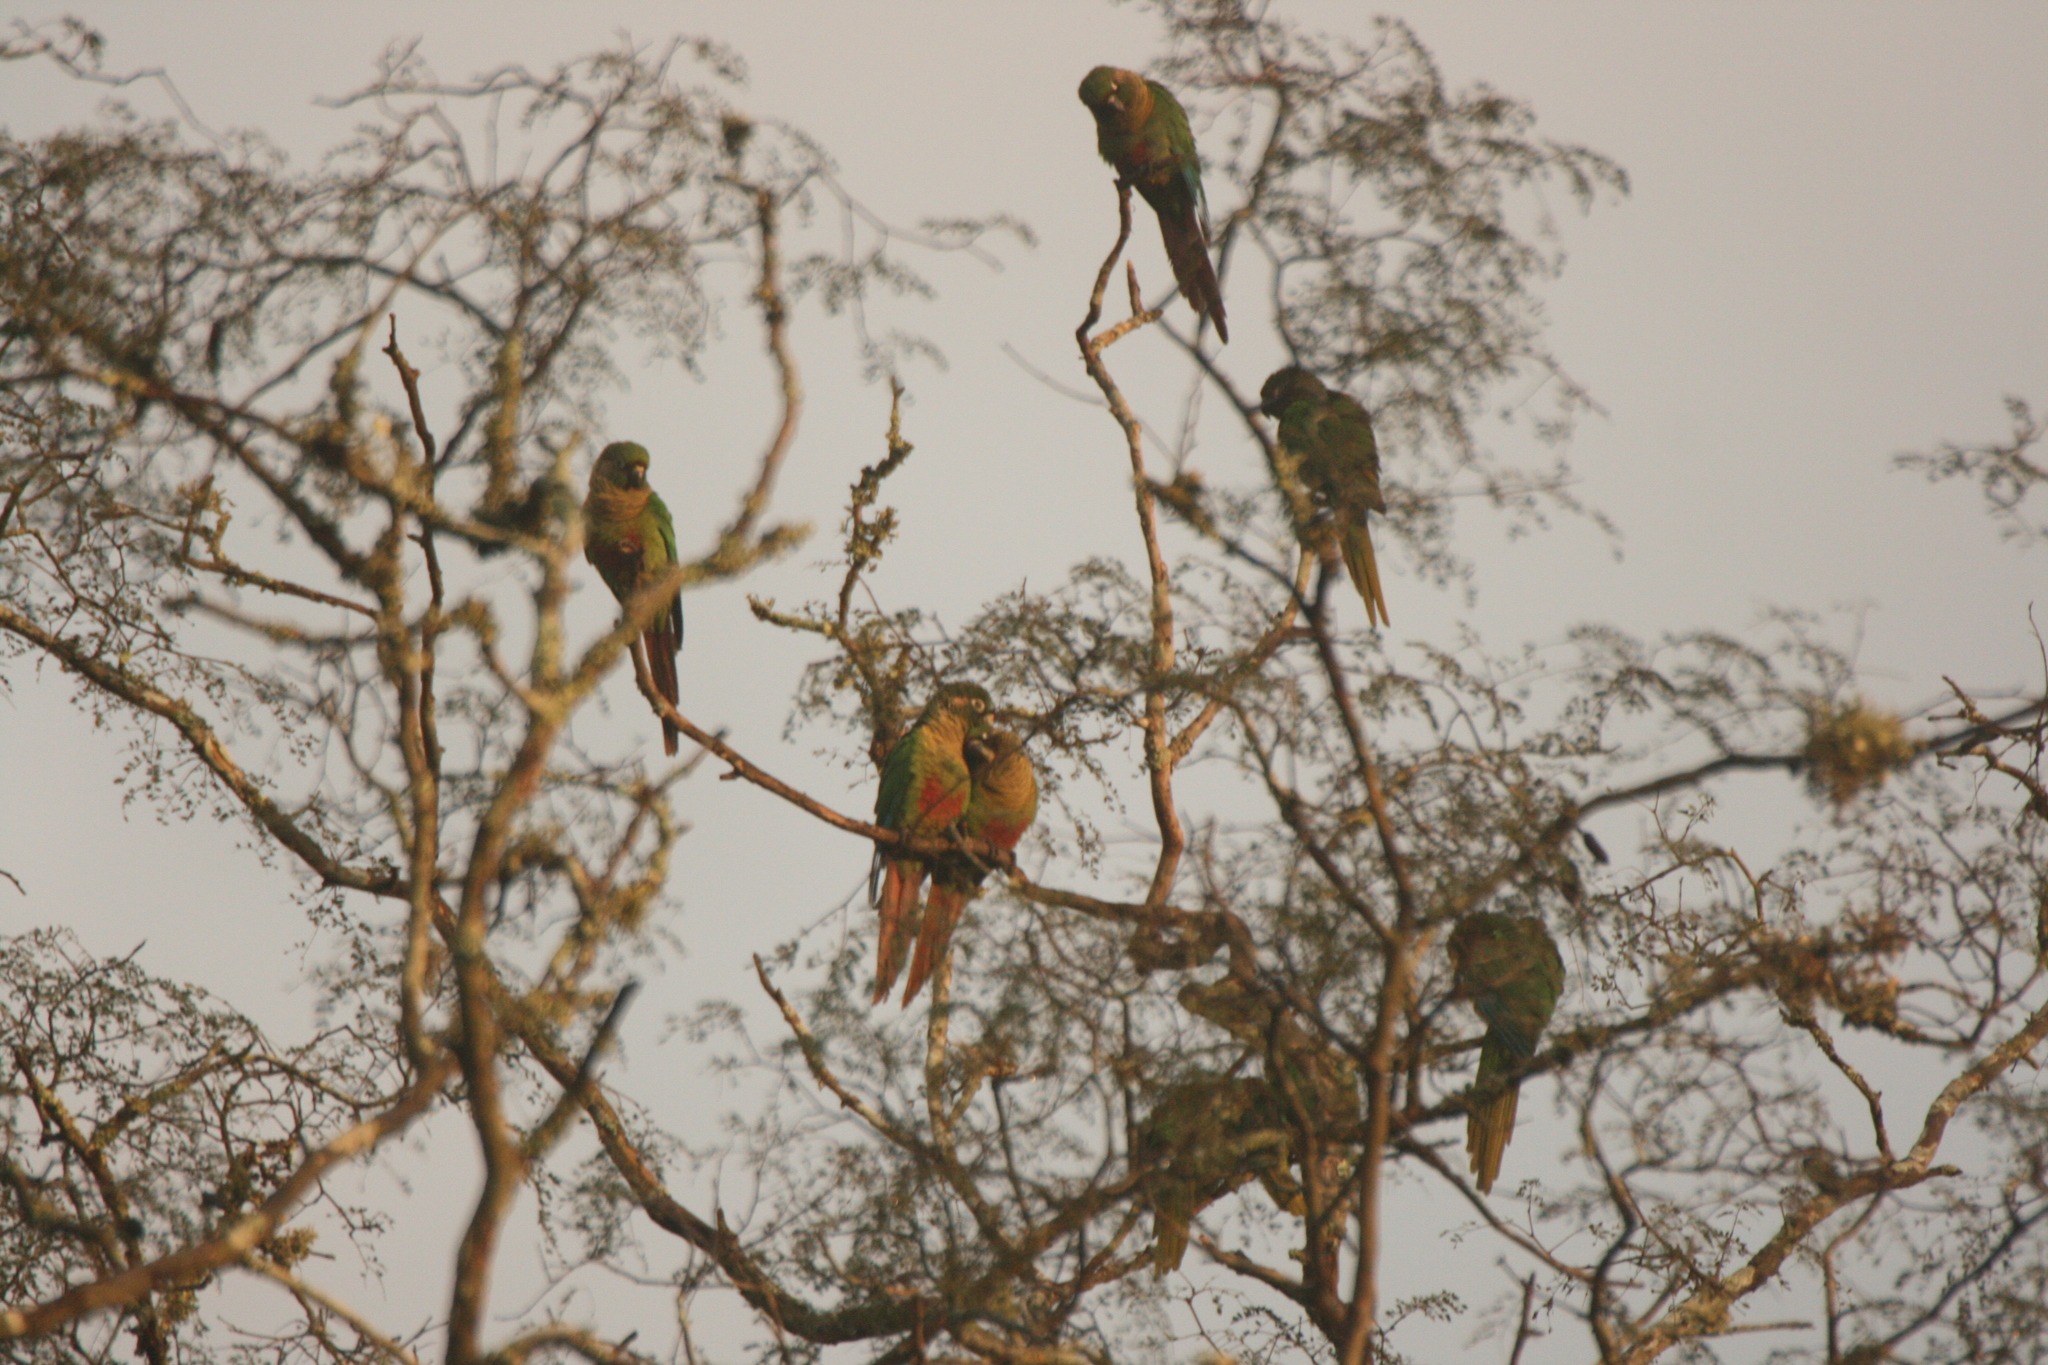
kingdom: Animalia
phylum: Chordata
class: Aves
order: Psittaciformes
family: Psittacidae
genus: Pyrrhura
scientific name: Pyrrhura frontalis
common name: Maroon-bellied parakeet
